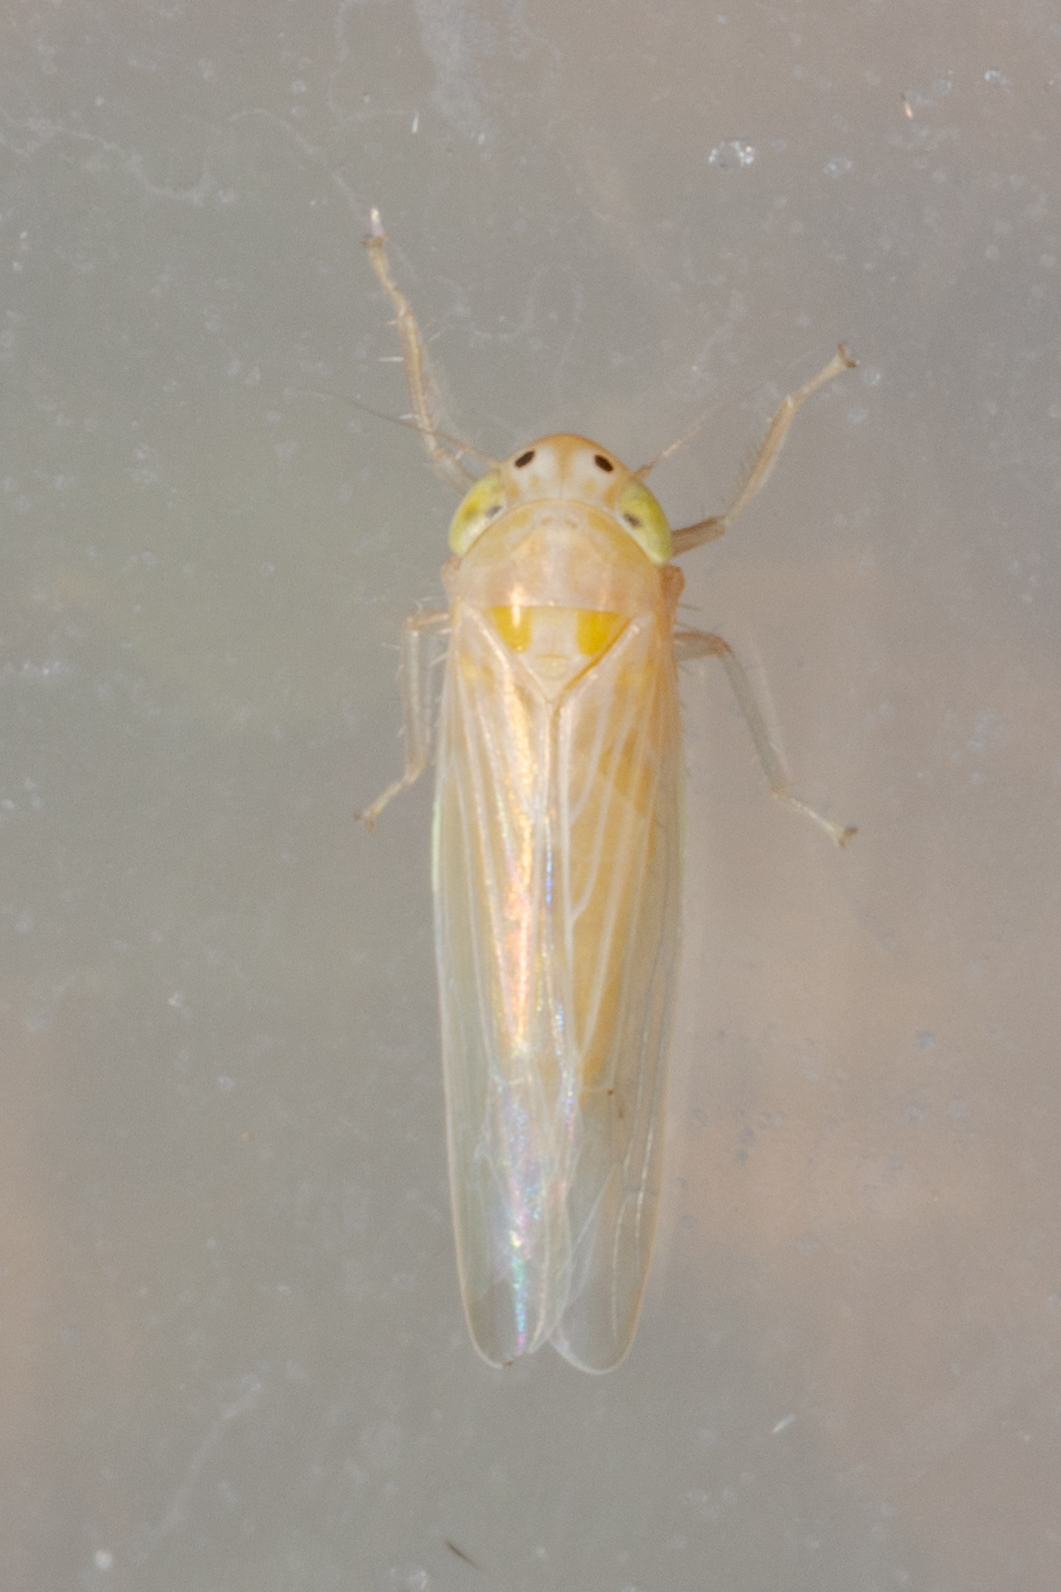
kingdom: Animalia
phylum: Arthropoda
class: Insecta
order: Hemiptera
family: Cicadellidae
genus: Dalbulus
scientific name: Dalbulus maidis
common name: Corn leafhopper
